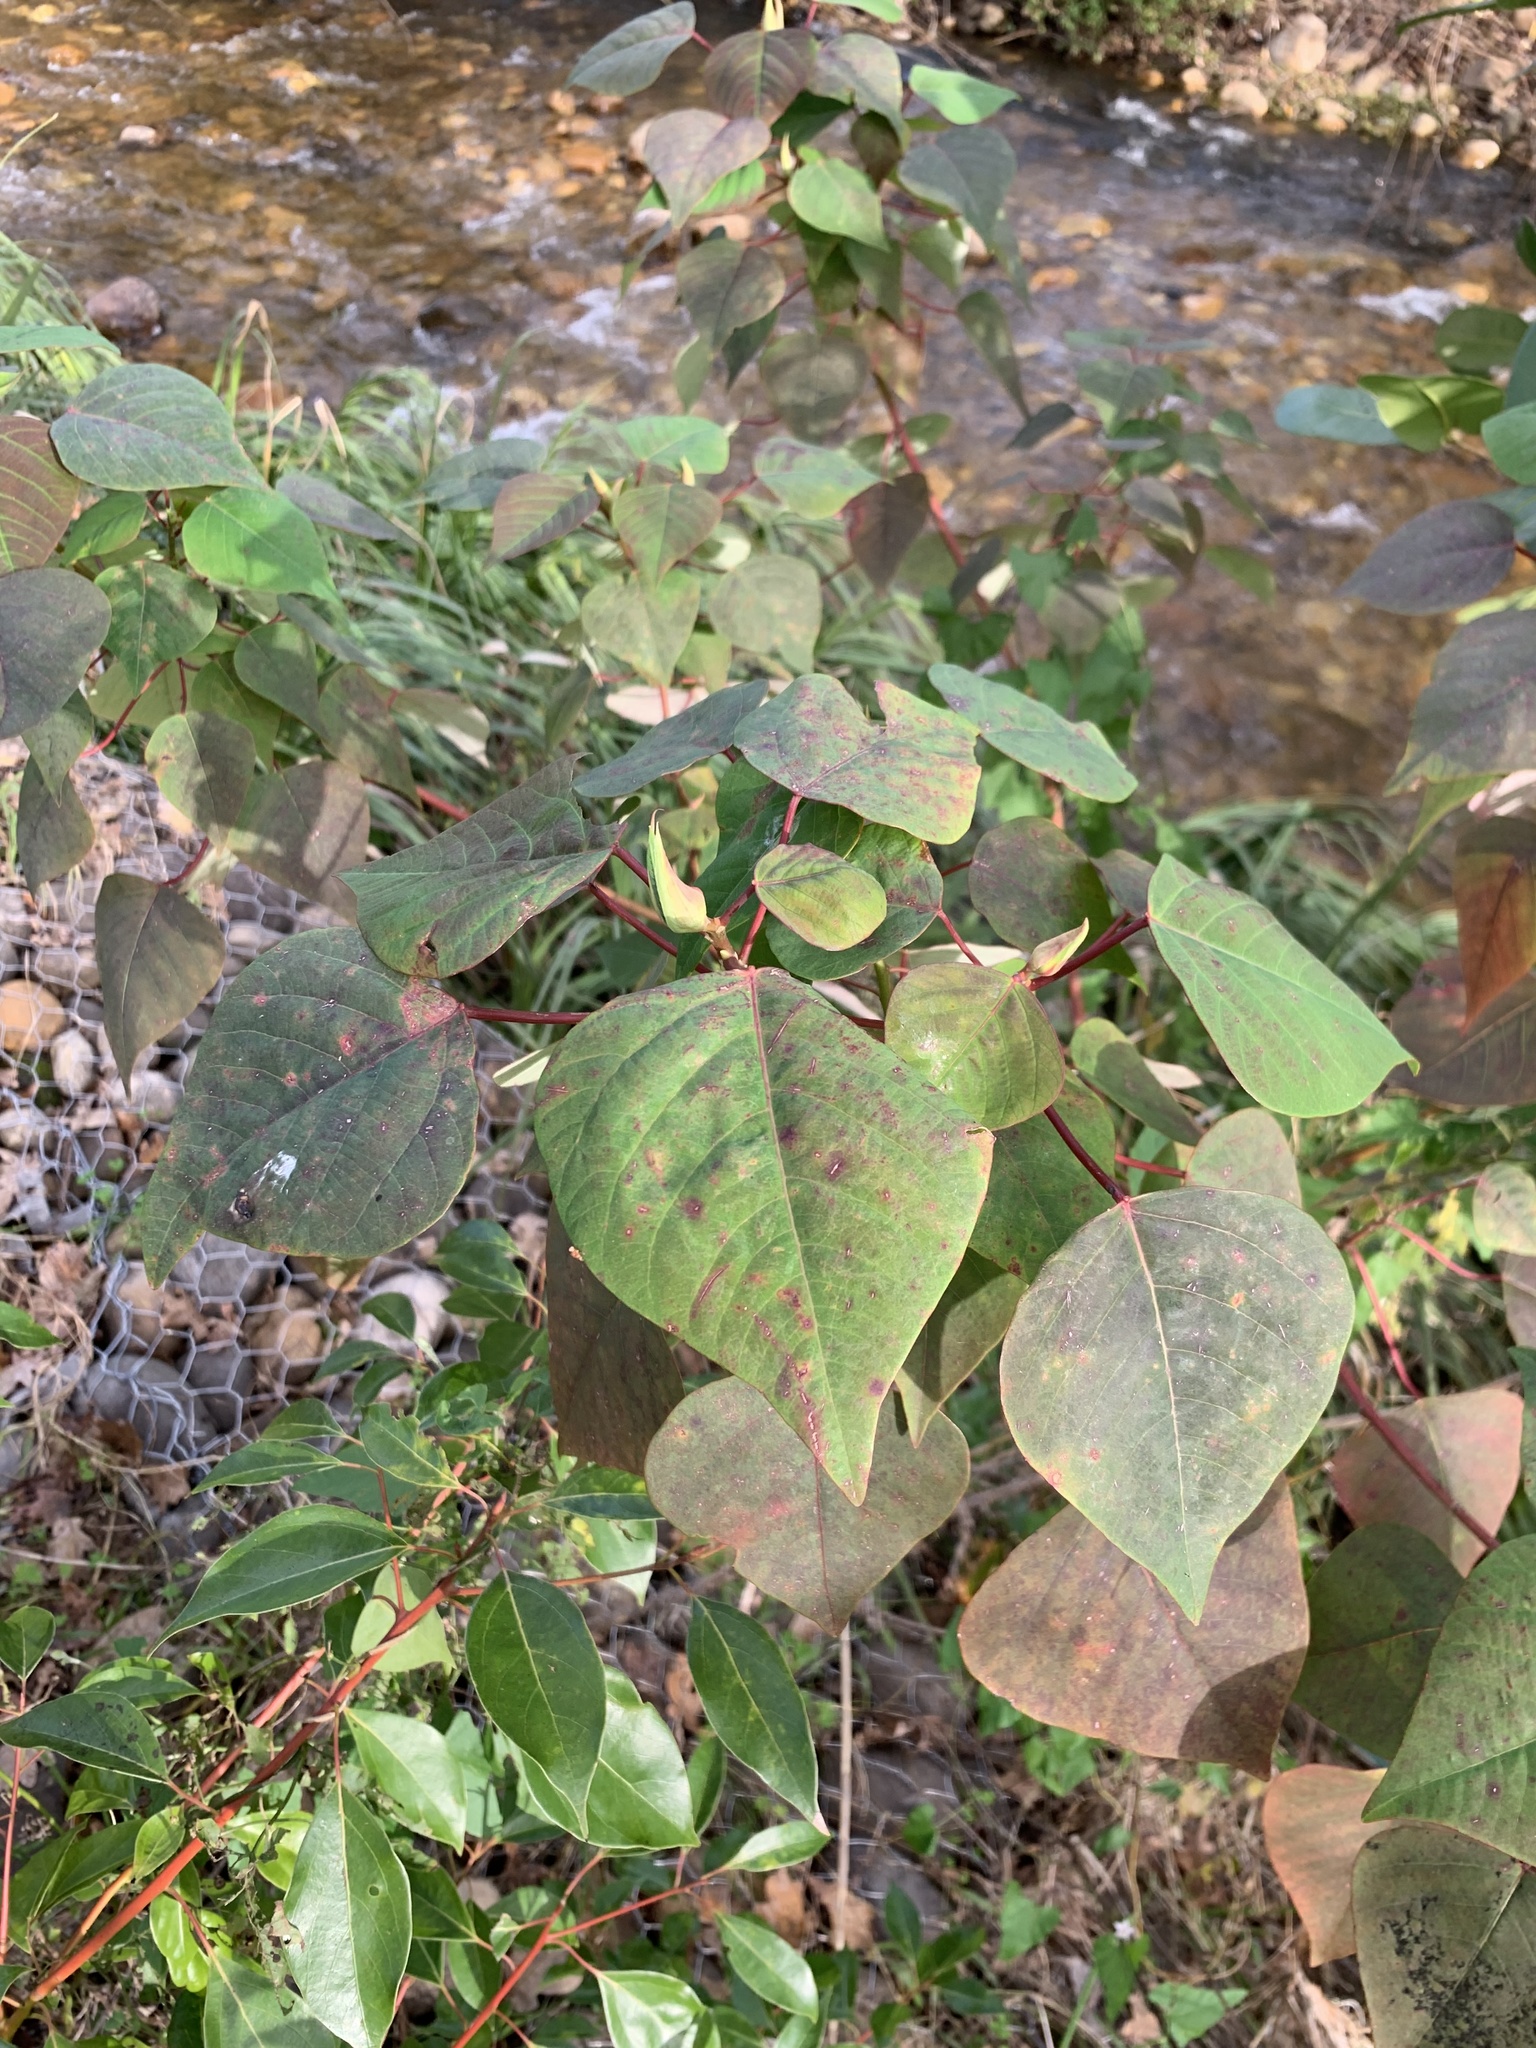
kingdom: Plantae
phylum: Tracheophyta
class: Magnoliopsida
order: Malpighiales
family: Euphorbiaceae
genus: Homalanthus
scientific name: Homalanthus populifolius
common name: Queensland poplar
